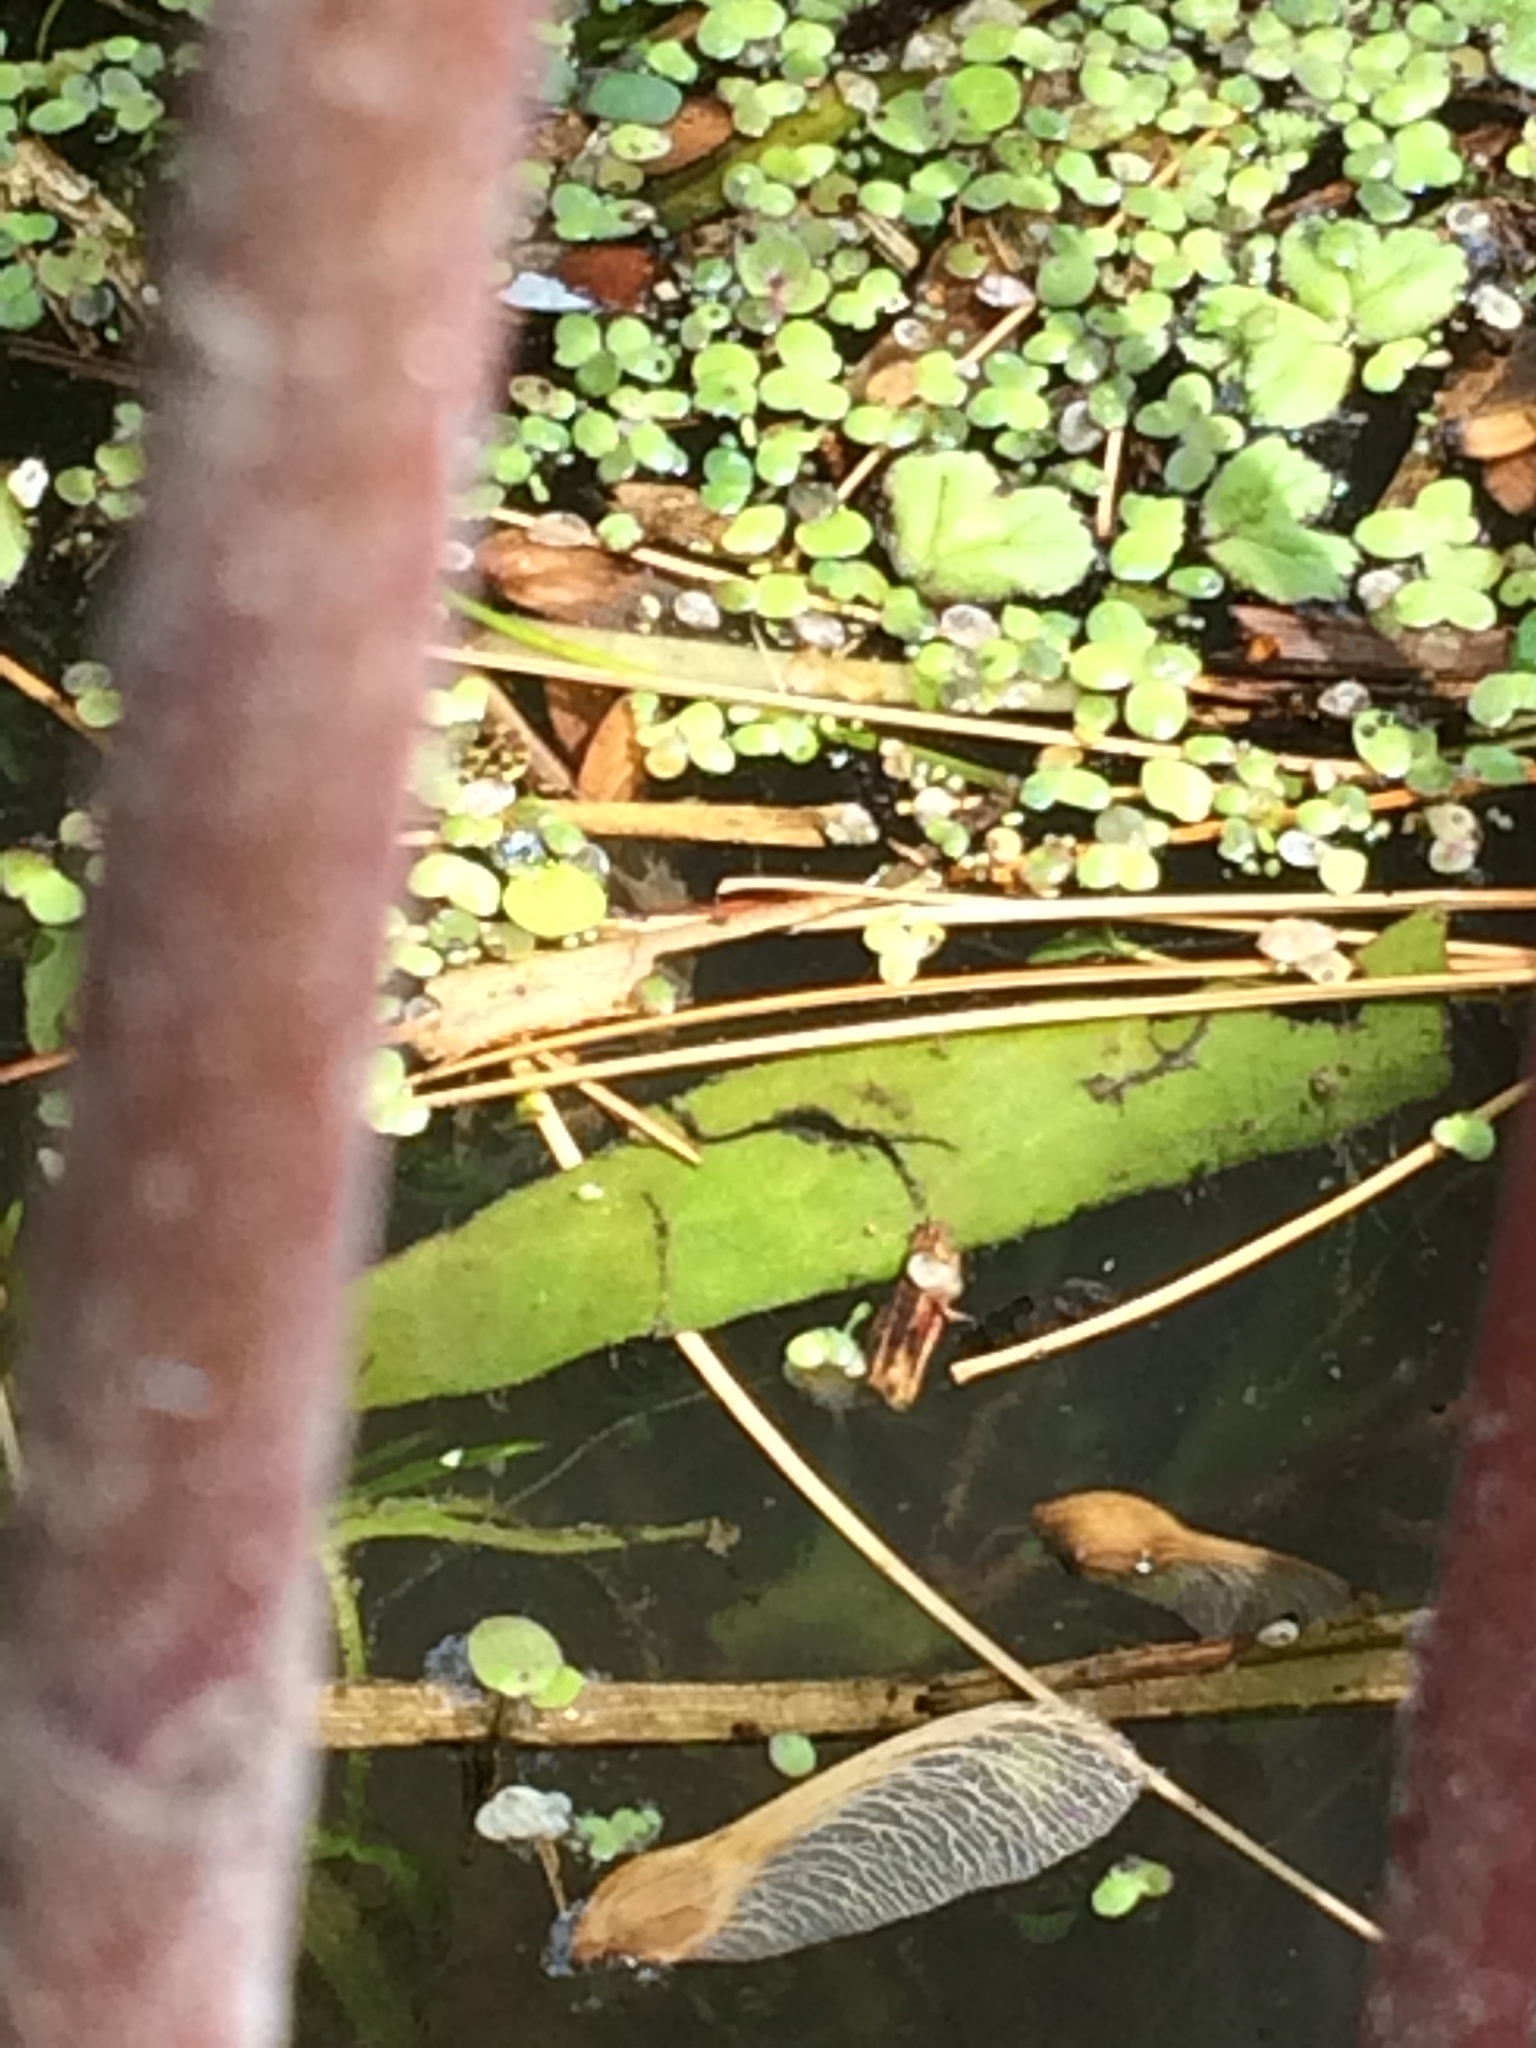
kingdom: Plantae
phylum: Marchantiophyta
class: Marchantiopsida
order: Marchantiales
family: Ricciaceae
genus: Ricciocarpos
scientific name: Ricciocarpos natans
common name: Purple-fringed liverwort
